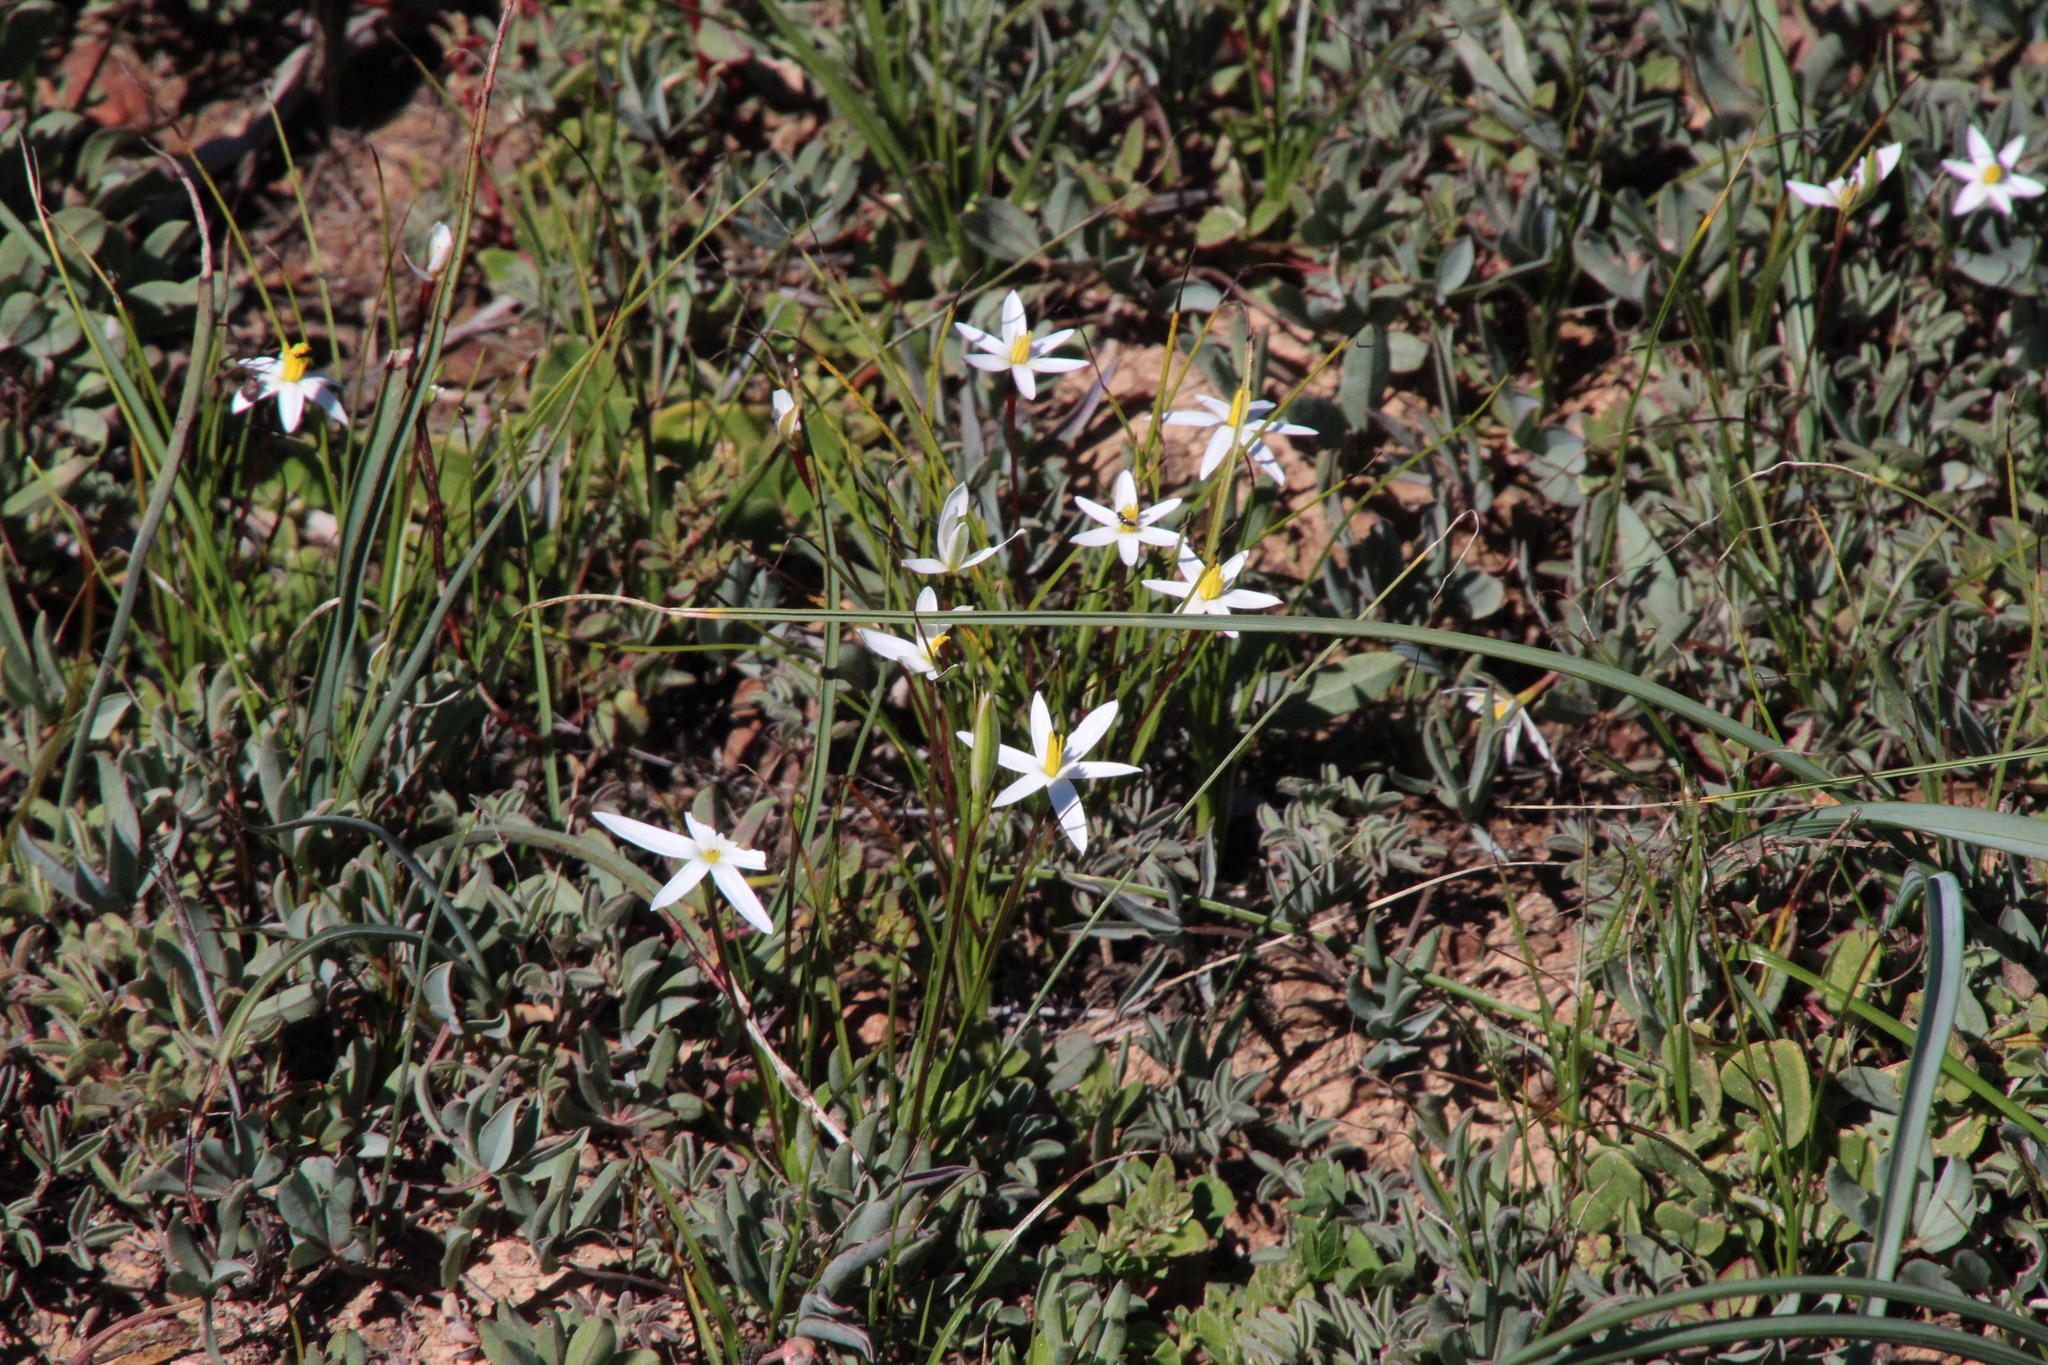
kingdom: Plantae
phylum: Tracheophyta
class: Liliopsida
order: Asparagales
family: Hypoxidaceae
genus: Pauridia
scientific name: Pauridia serrata
